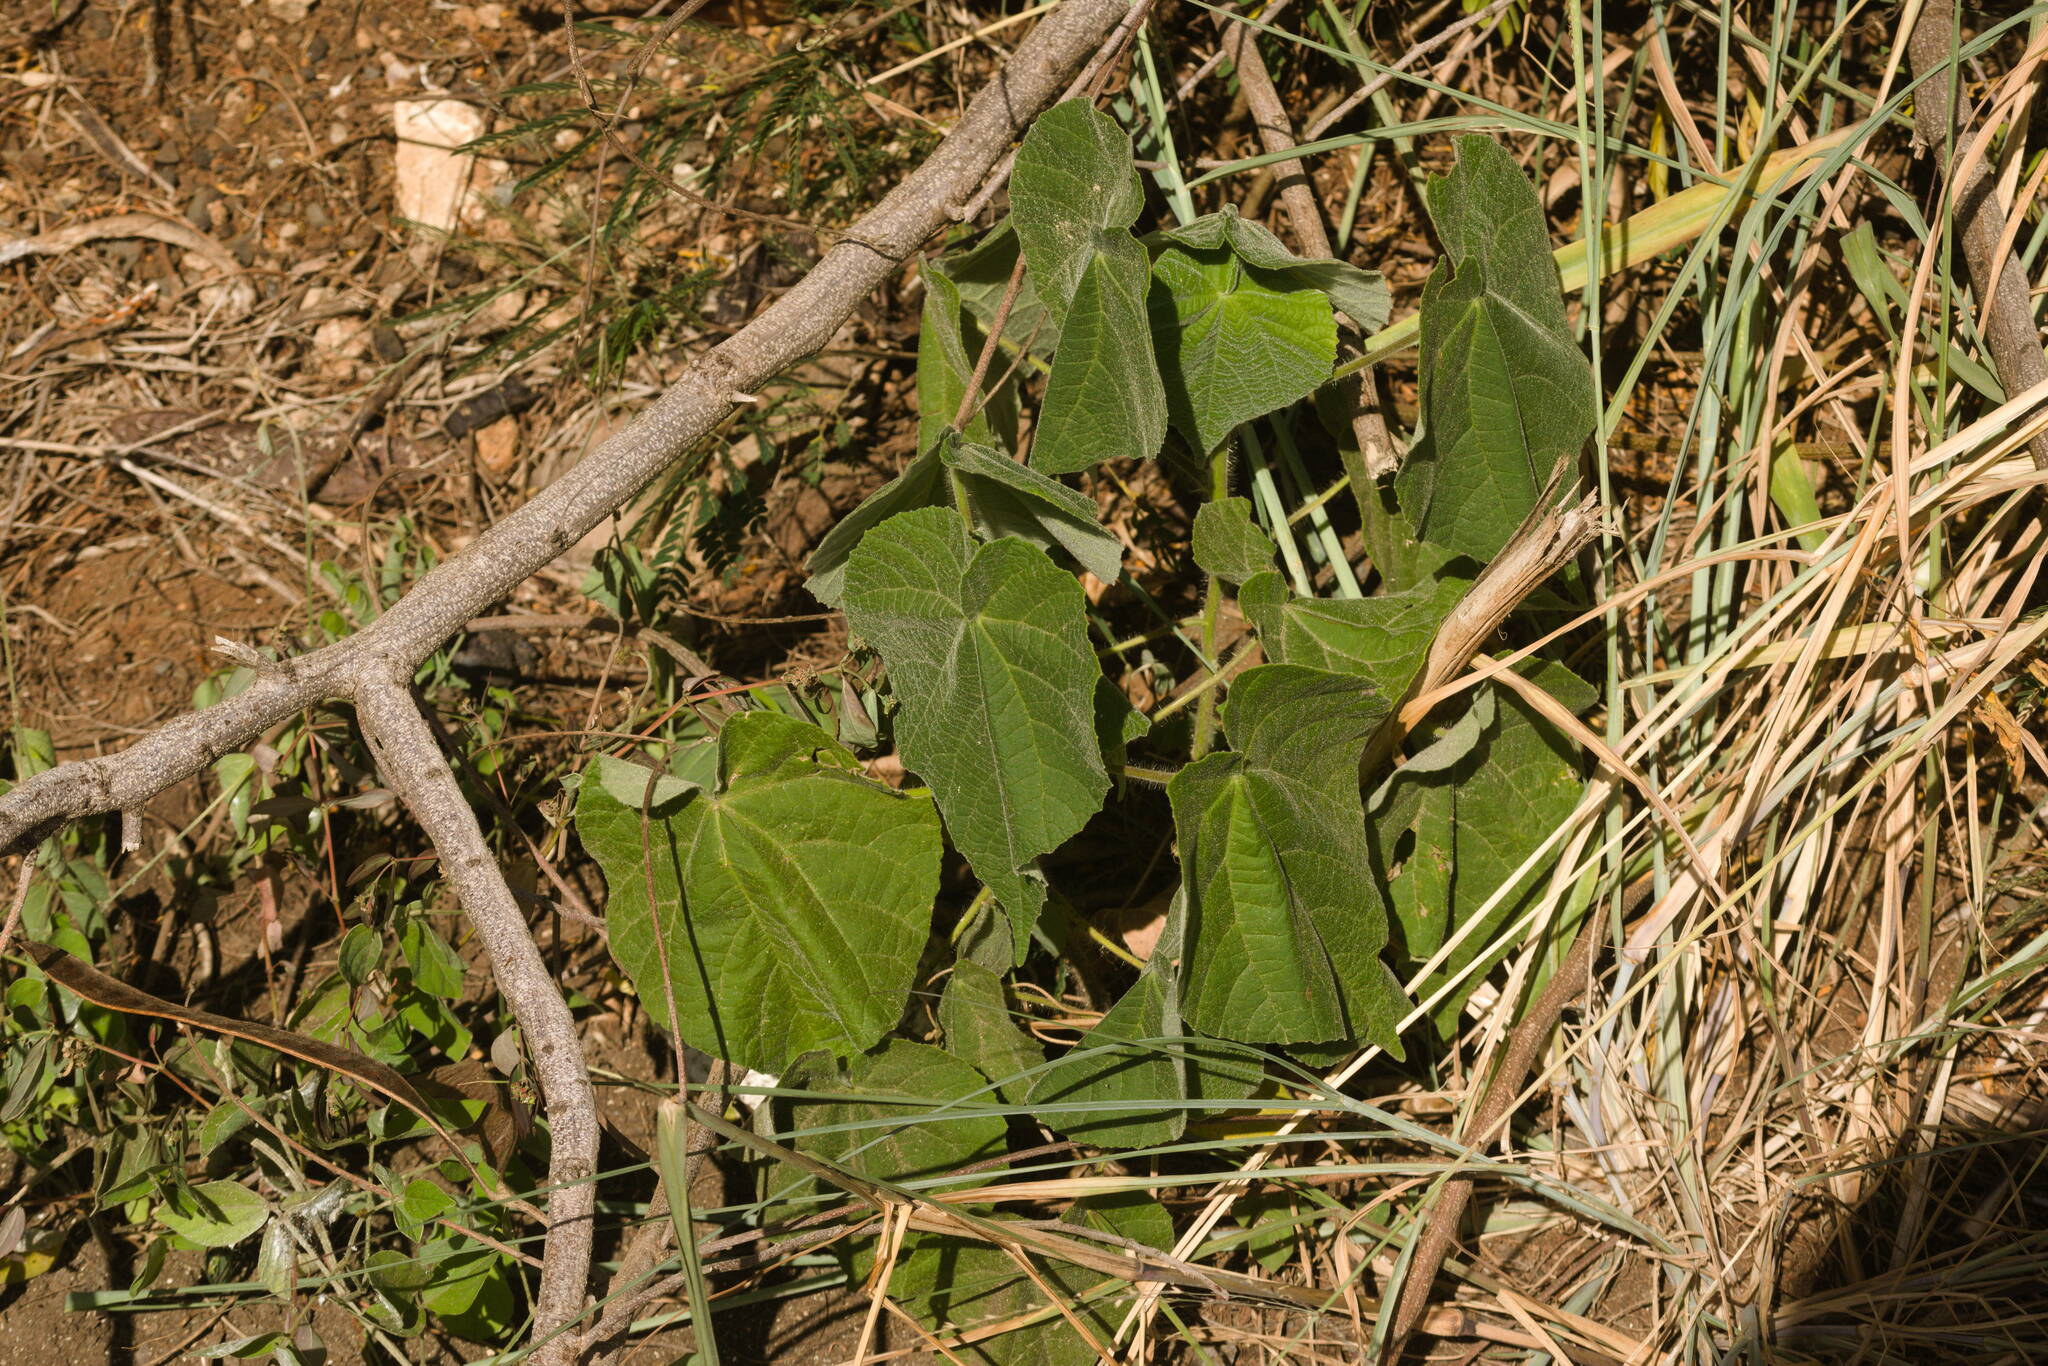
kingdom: Plantae
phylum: Tracheophyta
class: Magnoliopsida
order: Malvales
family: Malvaceae
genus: Abutilon
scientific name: Abutilon grandifolium
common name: Hairy abutilon
